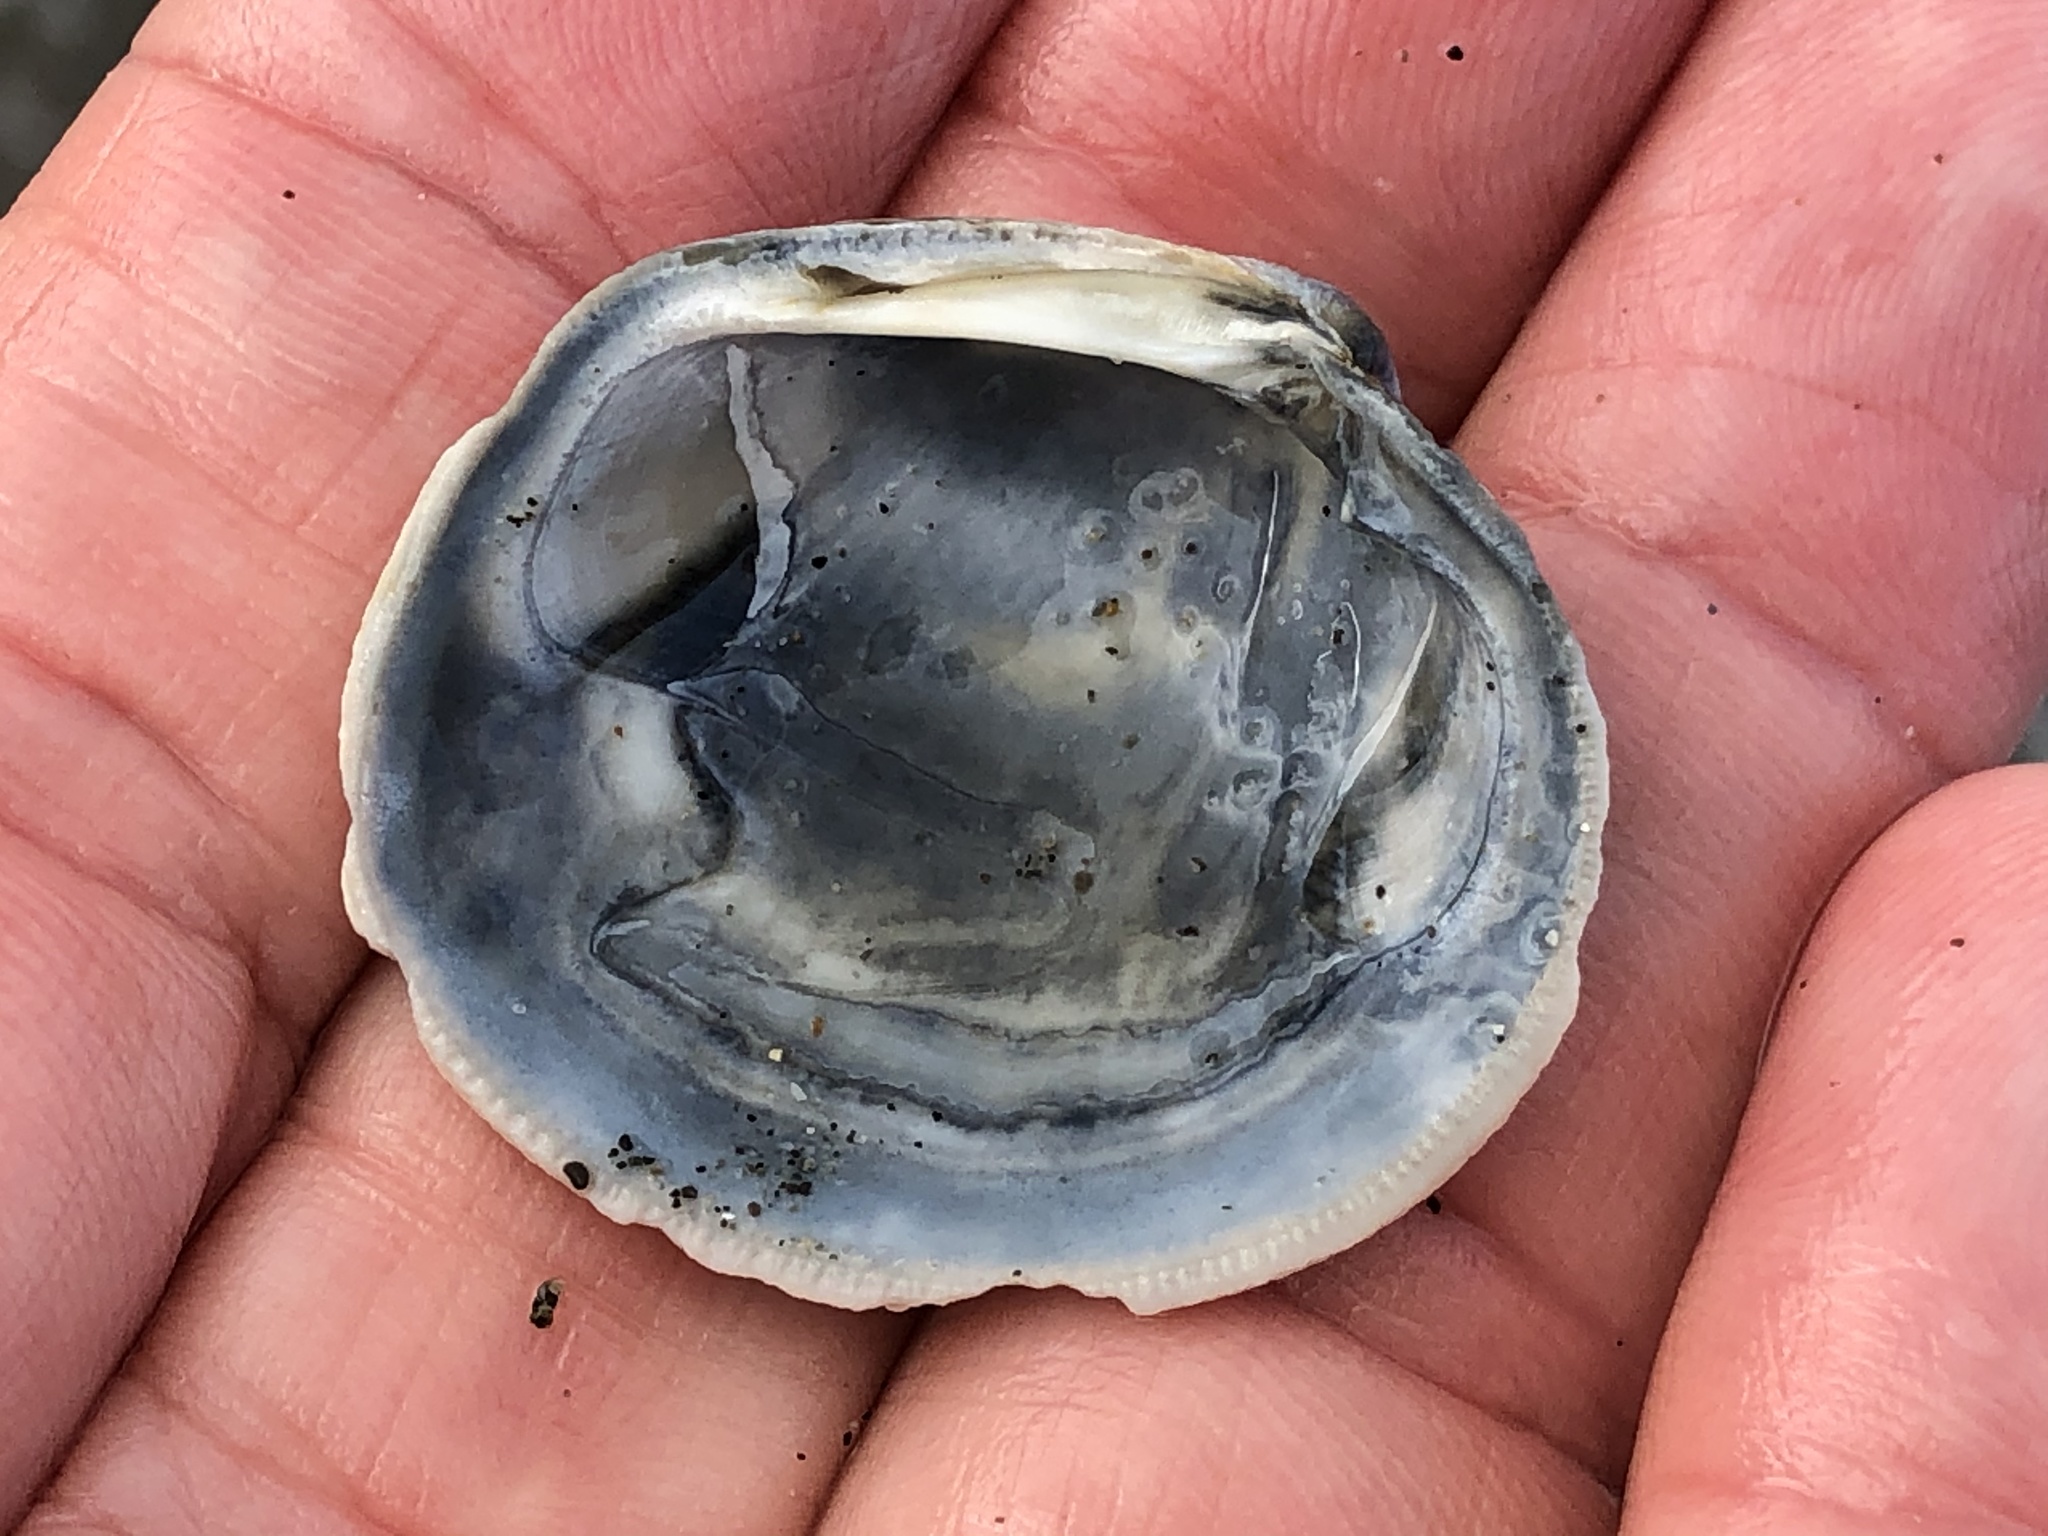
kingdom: Animalia
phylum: Mollusca
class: Bivalvia
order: Venerida
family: Veneridae
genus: Leukoma
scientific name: Leukoma staminea
